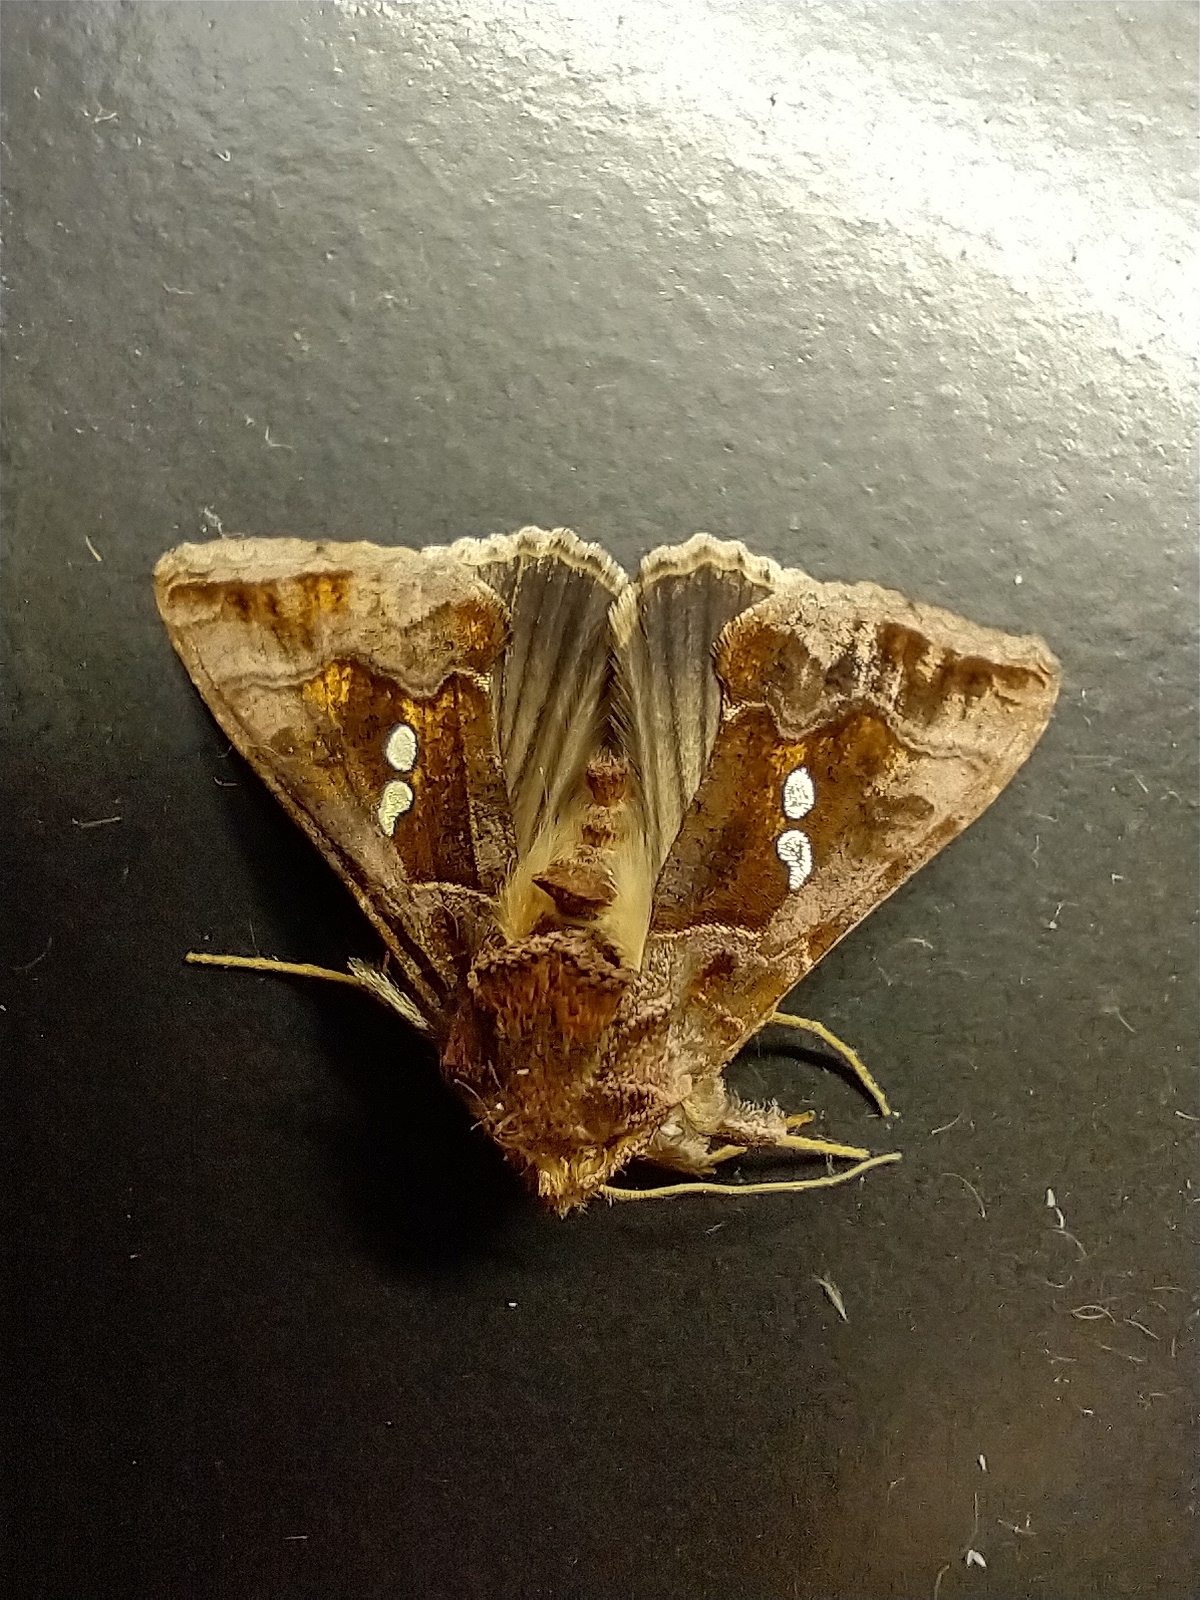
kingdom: Animalia
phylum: Arthropoda
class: Insecta
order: Lepidoptera
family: Noctuidae
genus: Chrysodeixis
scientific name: Chrysodeixis chalcites
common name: Golden twin-spot
